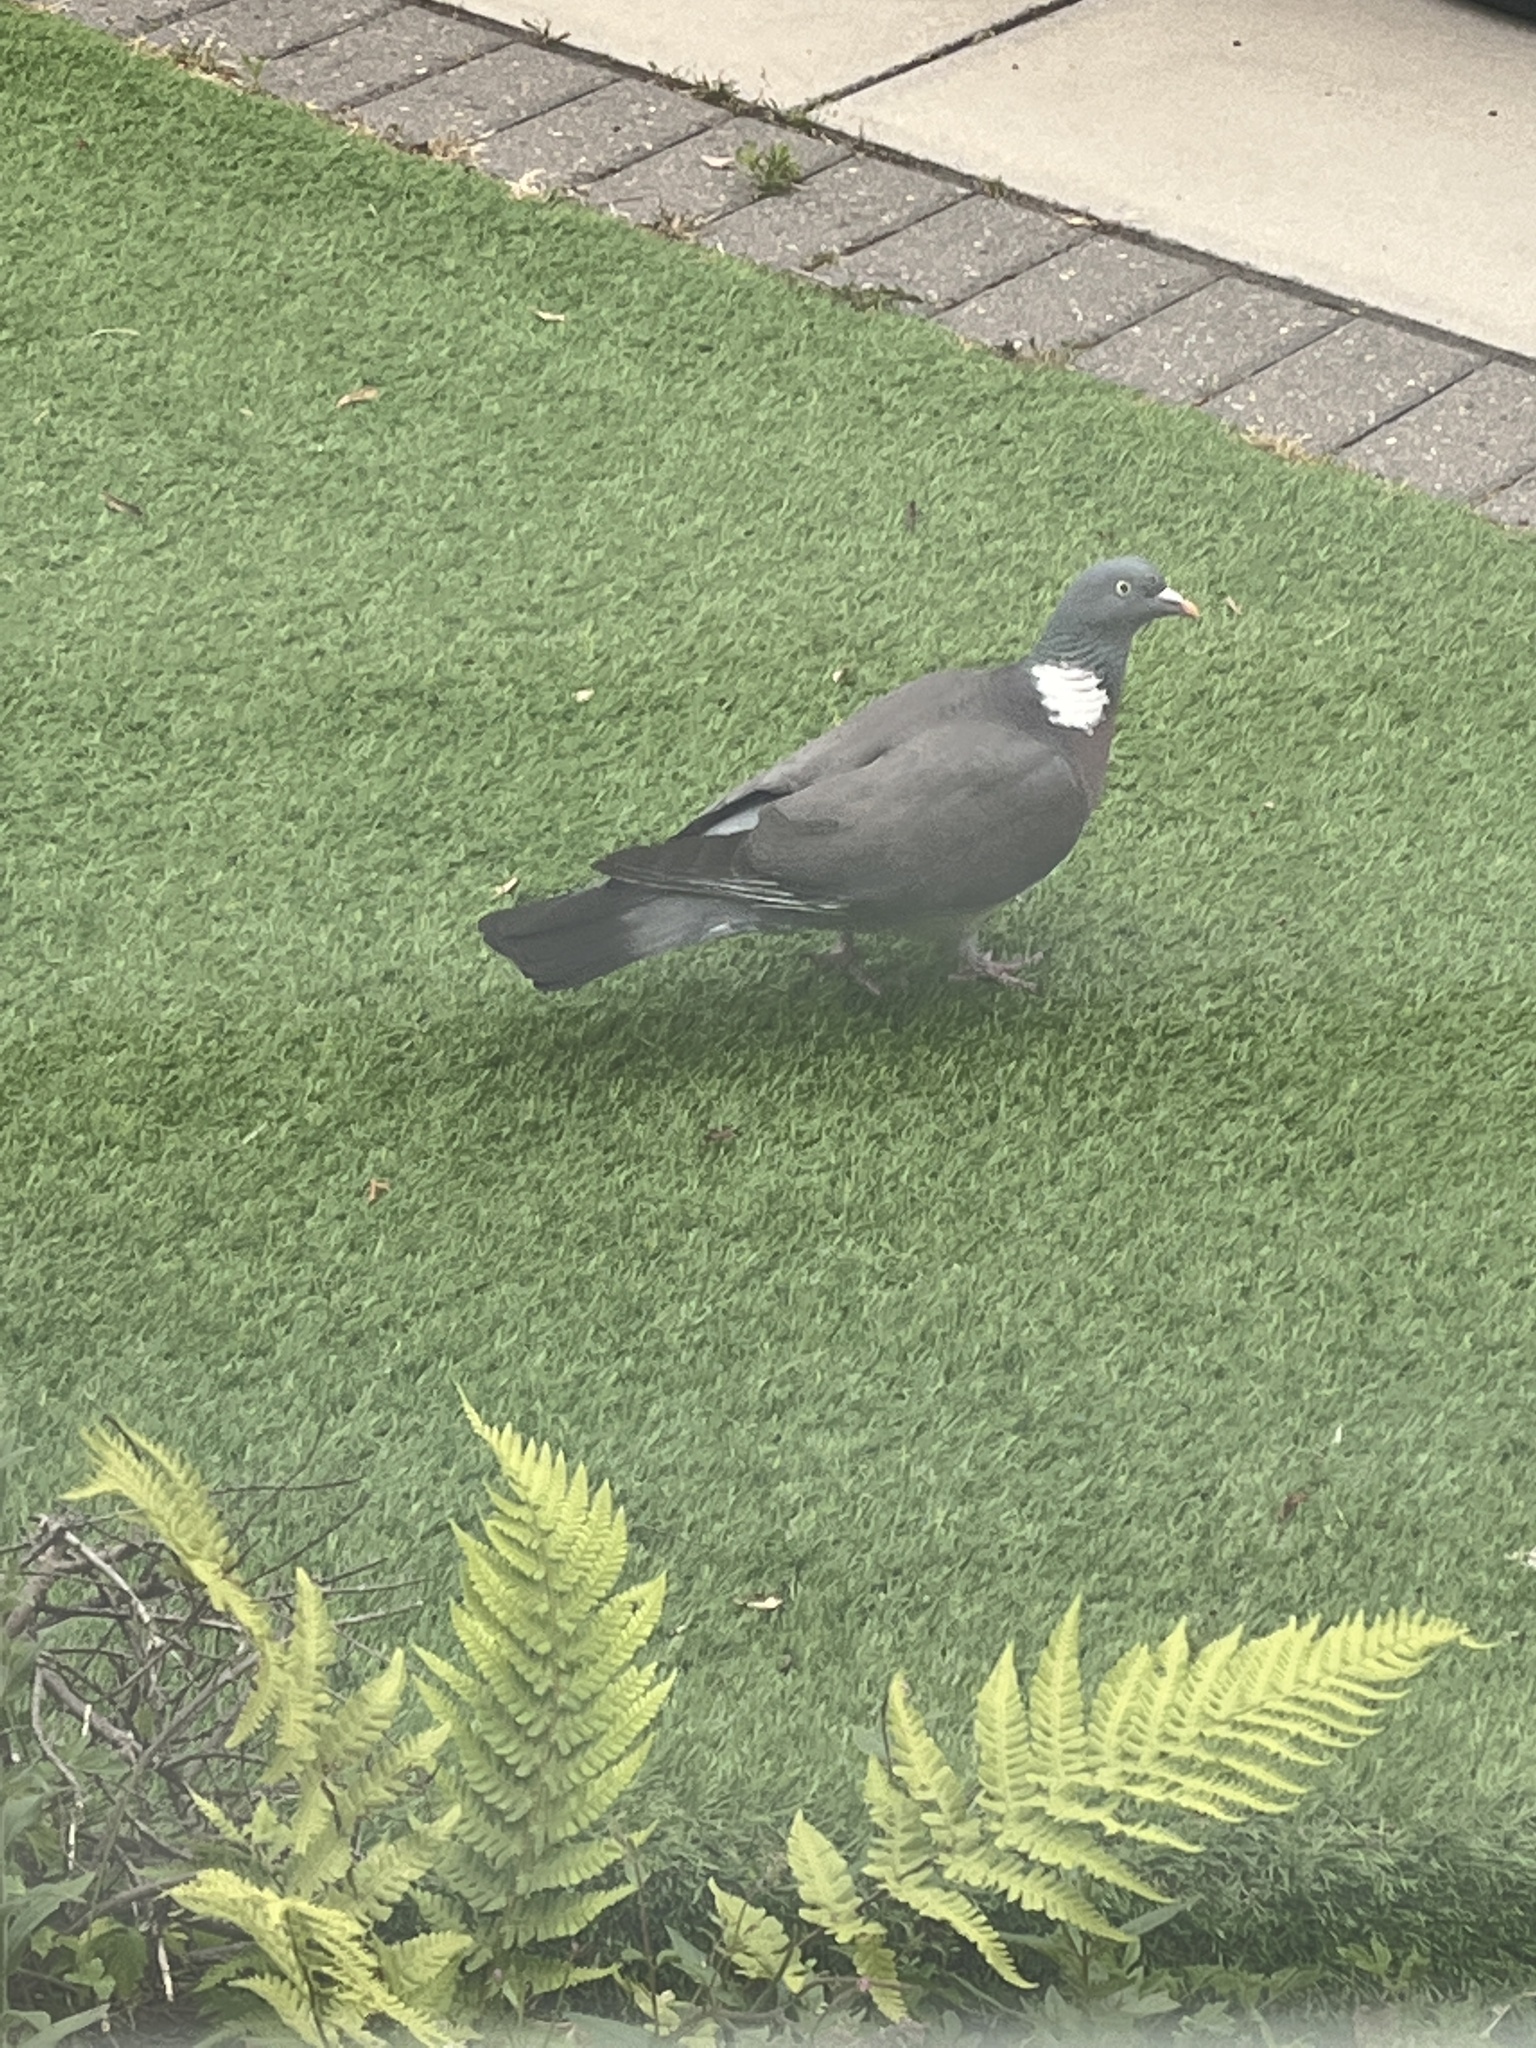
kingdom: Animalia
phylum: Chordata
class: Aves
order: Columbiformes
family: Columbidae
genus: Columba
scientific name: Columba palumbus
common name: Common wood pigeon
